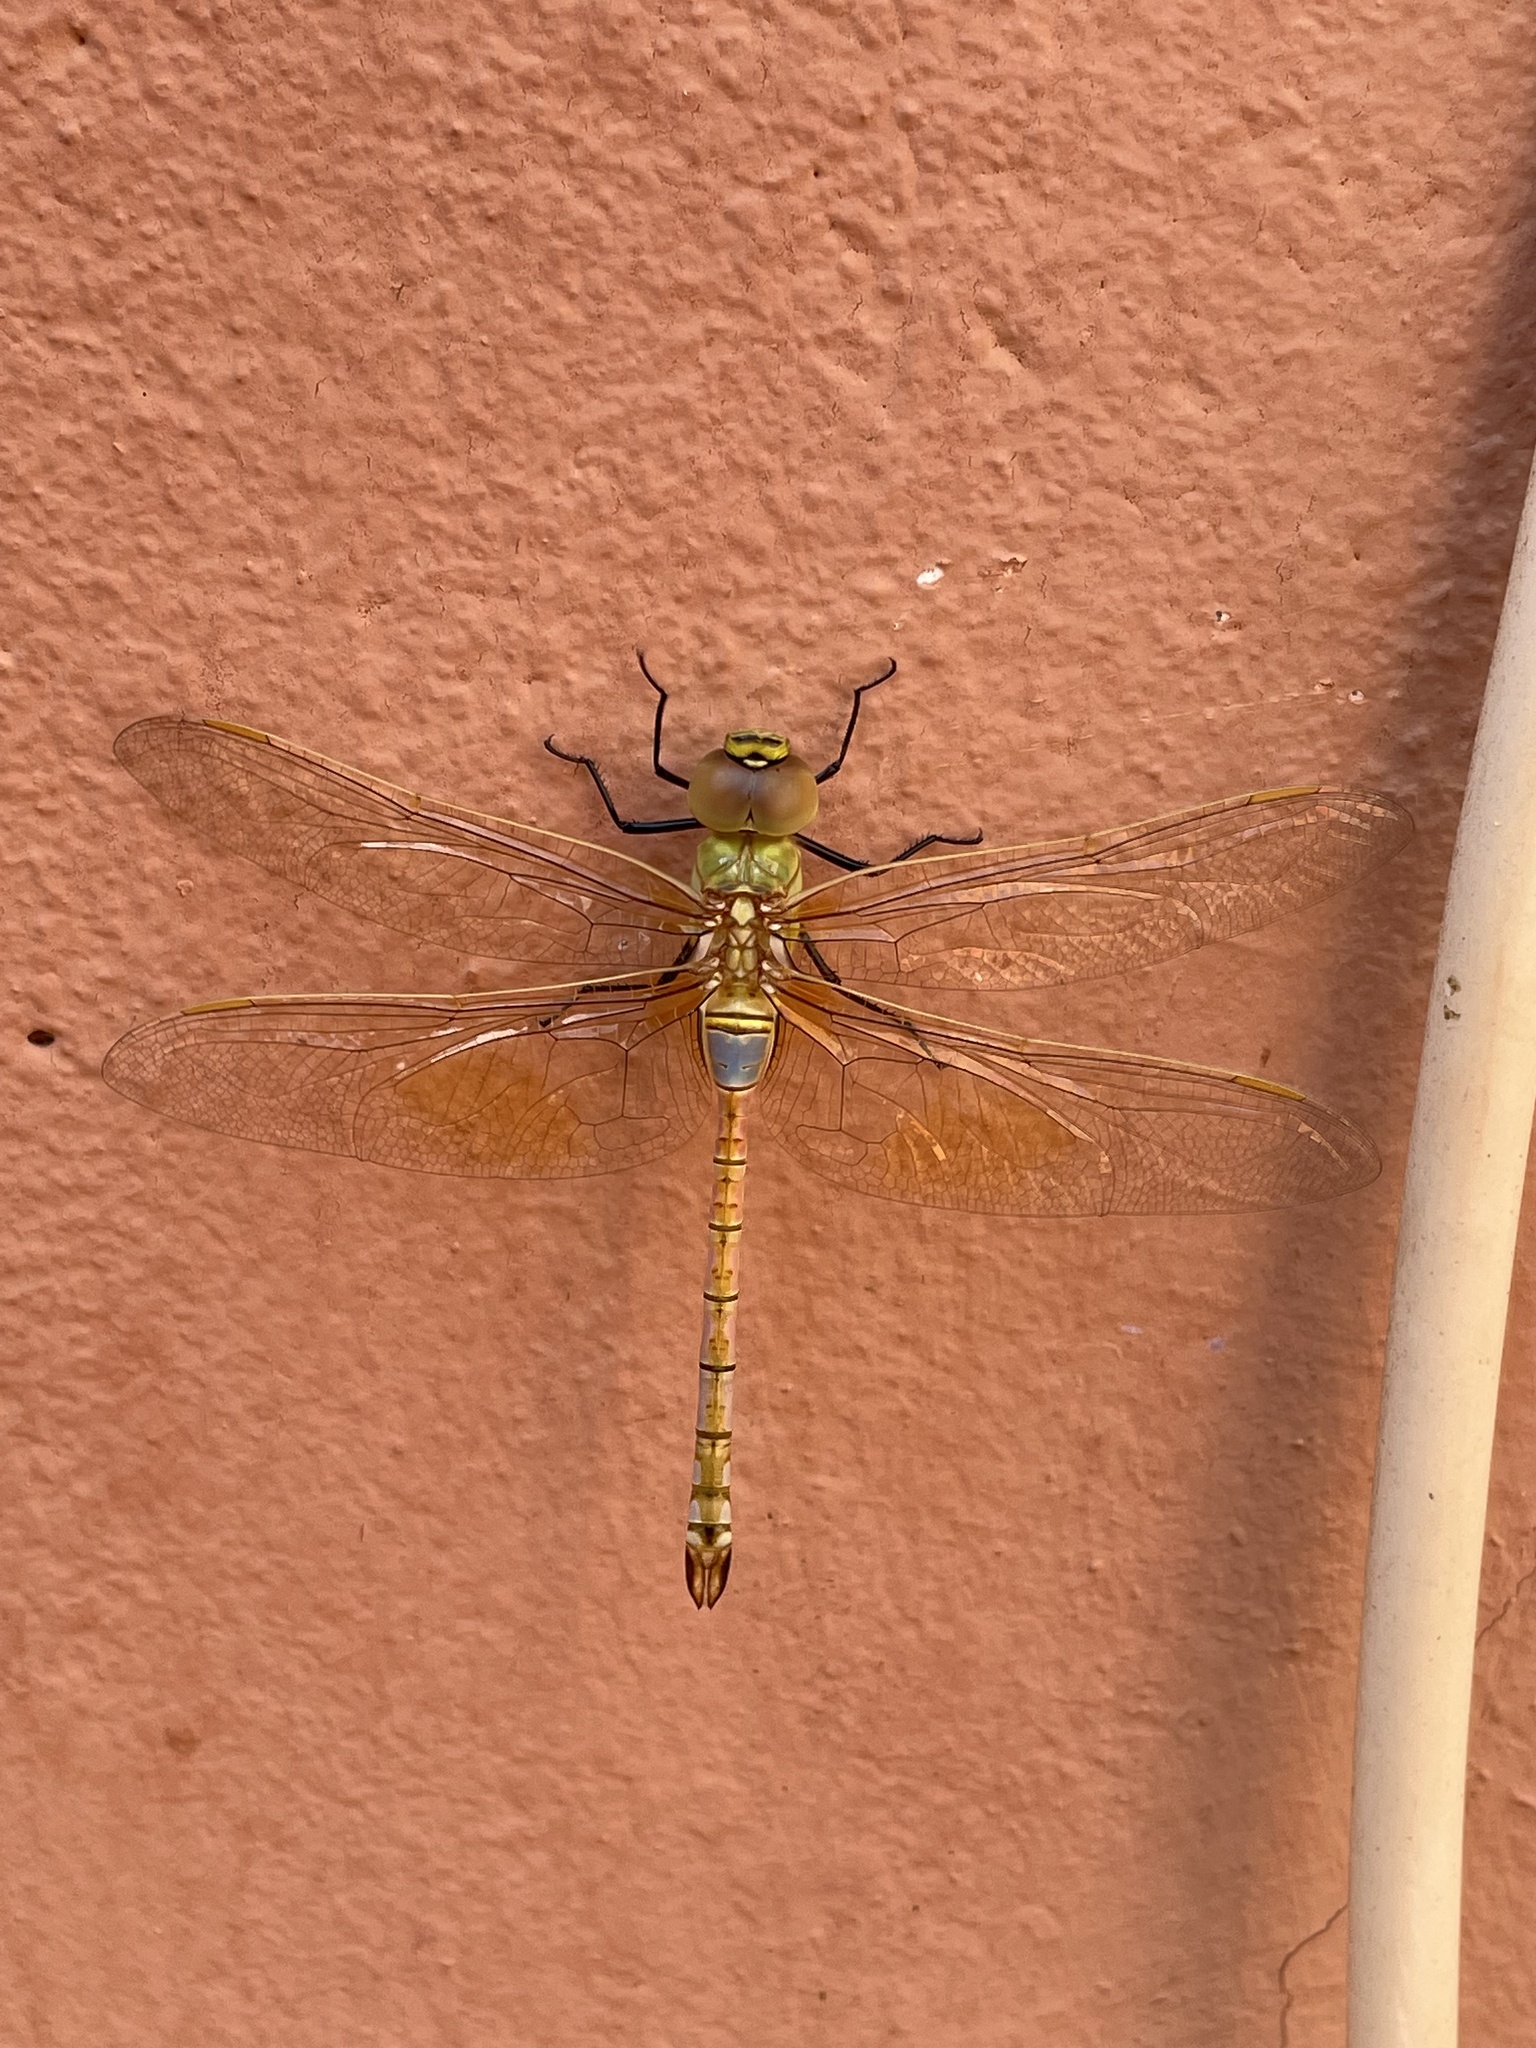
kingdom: Animalia
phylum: Arthropoda
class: Insecta
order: Odonata
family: Aeshnidae
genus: Anax
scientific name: Anax ephippiger
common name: Vagrant emperor
